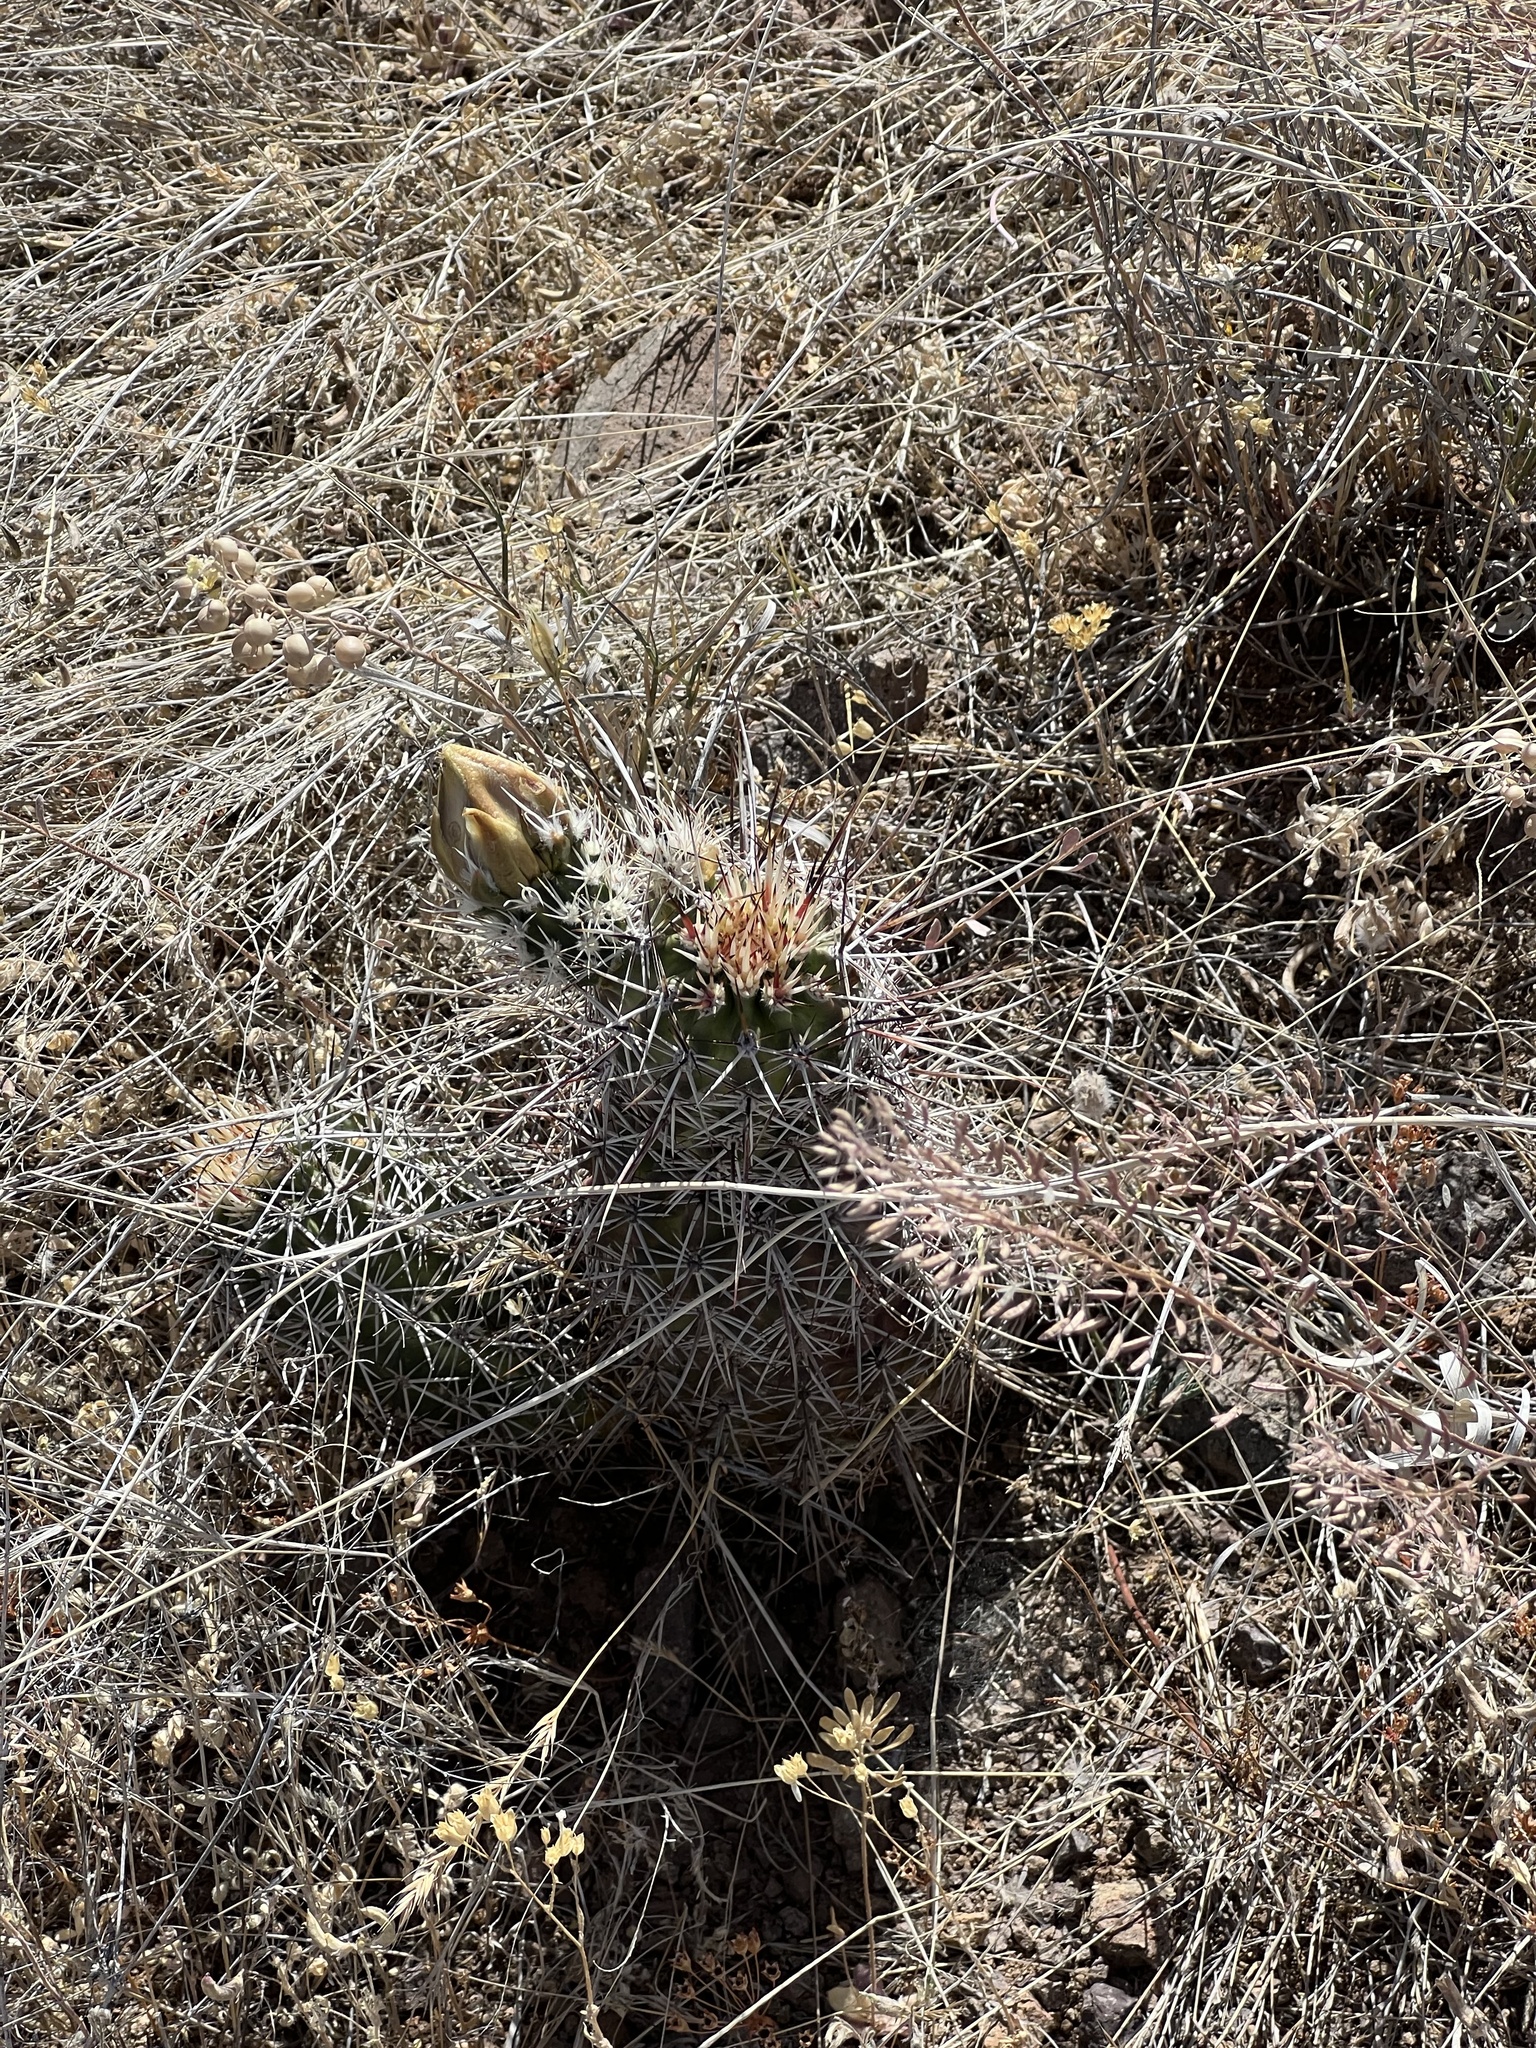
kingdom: Plantae
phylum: Tracheophyta
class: Magnoliopsida
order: Caryophyllales
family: Cactaceae
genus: Echinocereus
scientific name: Echinocereus fendleri
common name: Fendler's hedgehog cactus
